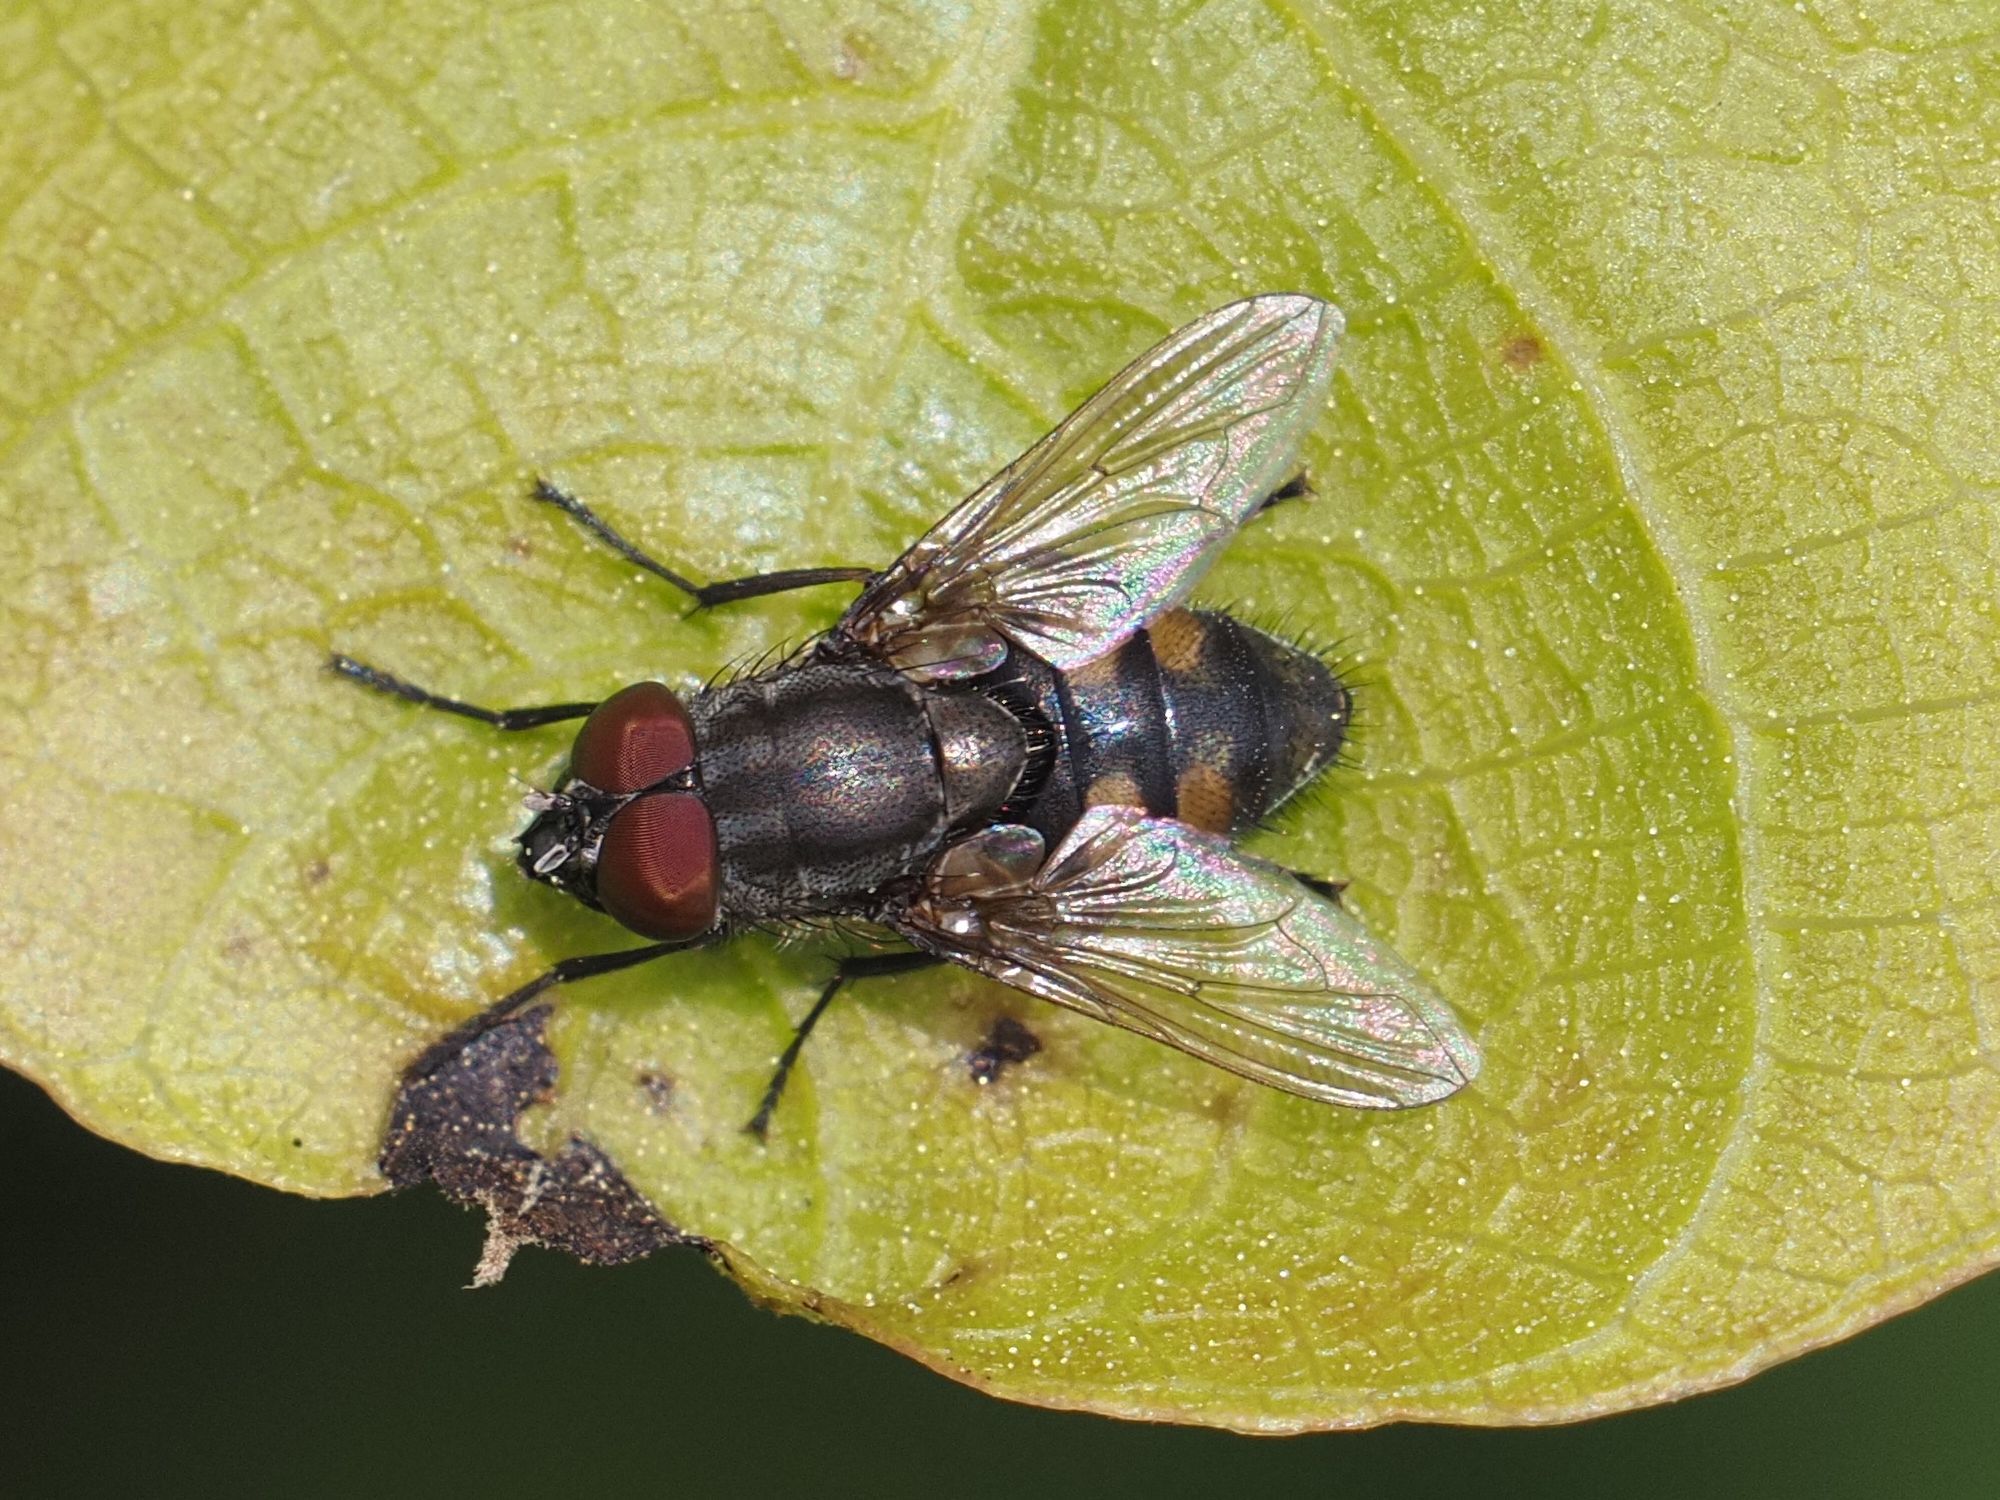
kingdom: Animalia
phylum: Arthropoda
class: Insecta
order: Diptera
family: Calliphoridae
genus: Stomorhina
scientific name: Stomorhina lunata
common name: Locust blowfly
